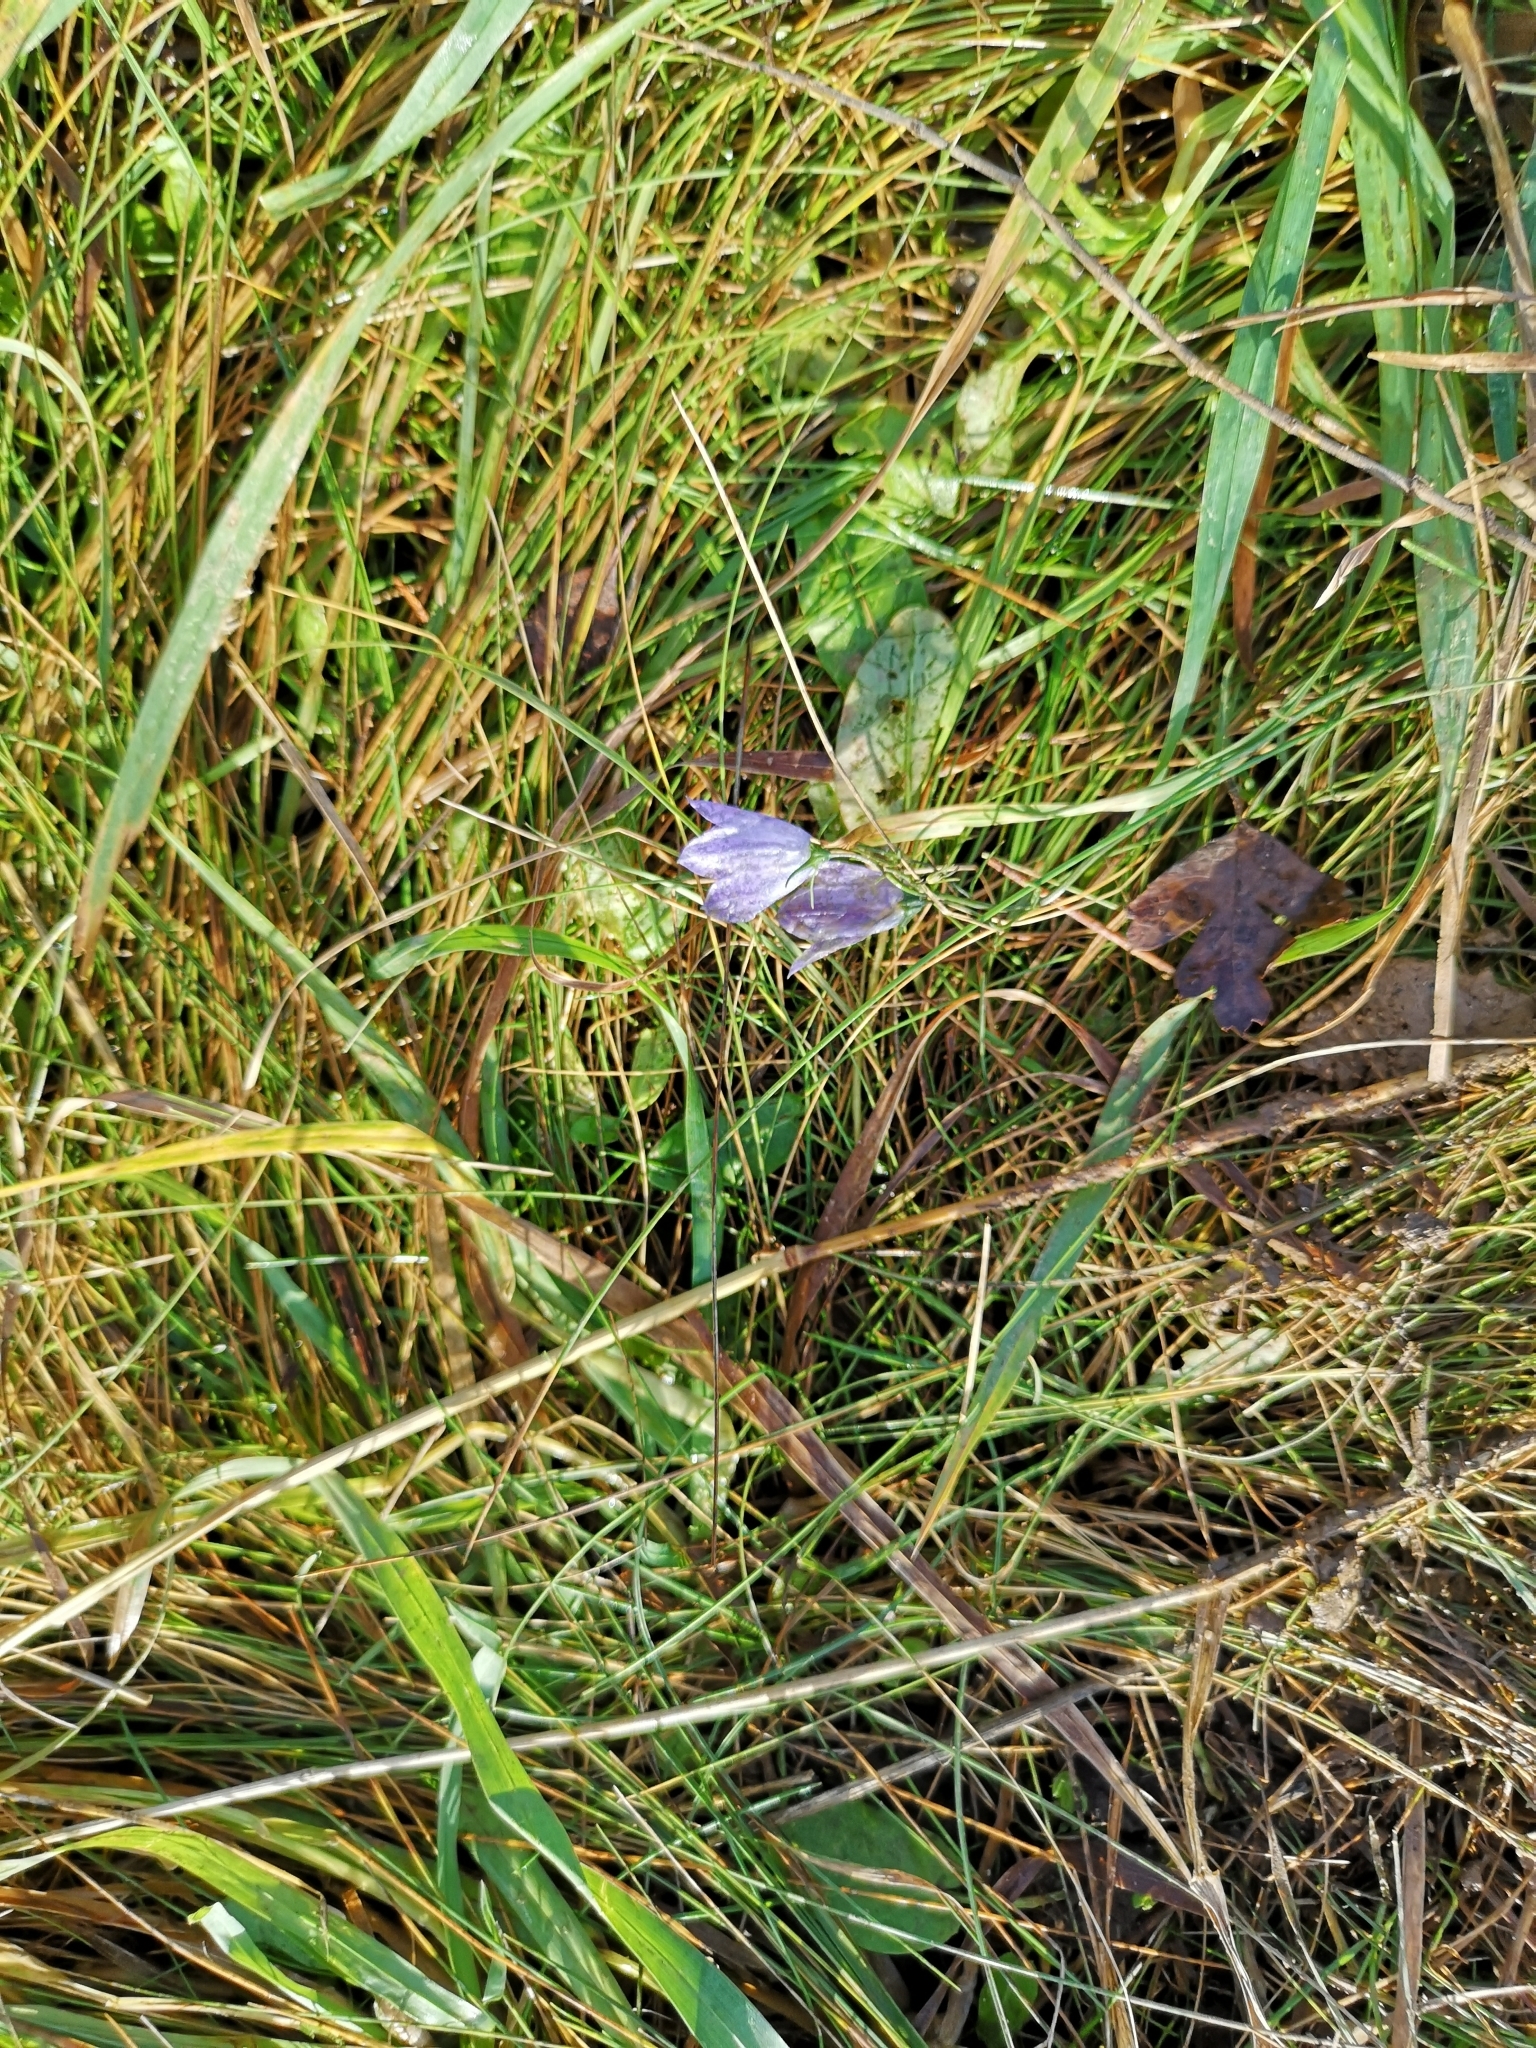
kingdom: Plantae
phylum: Tracheophyta
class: Magnoliopsida
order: Asterales
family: Campanulaceae
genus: Campanula
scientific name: Campanula rotundifolia
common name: Harebell
